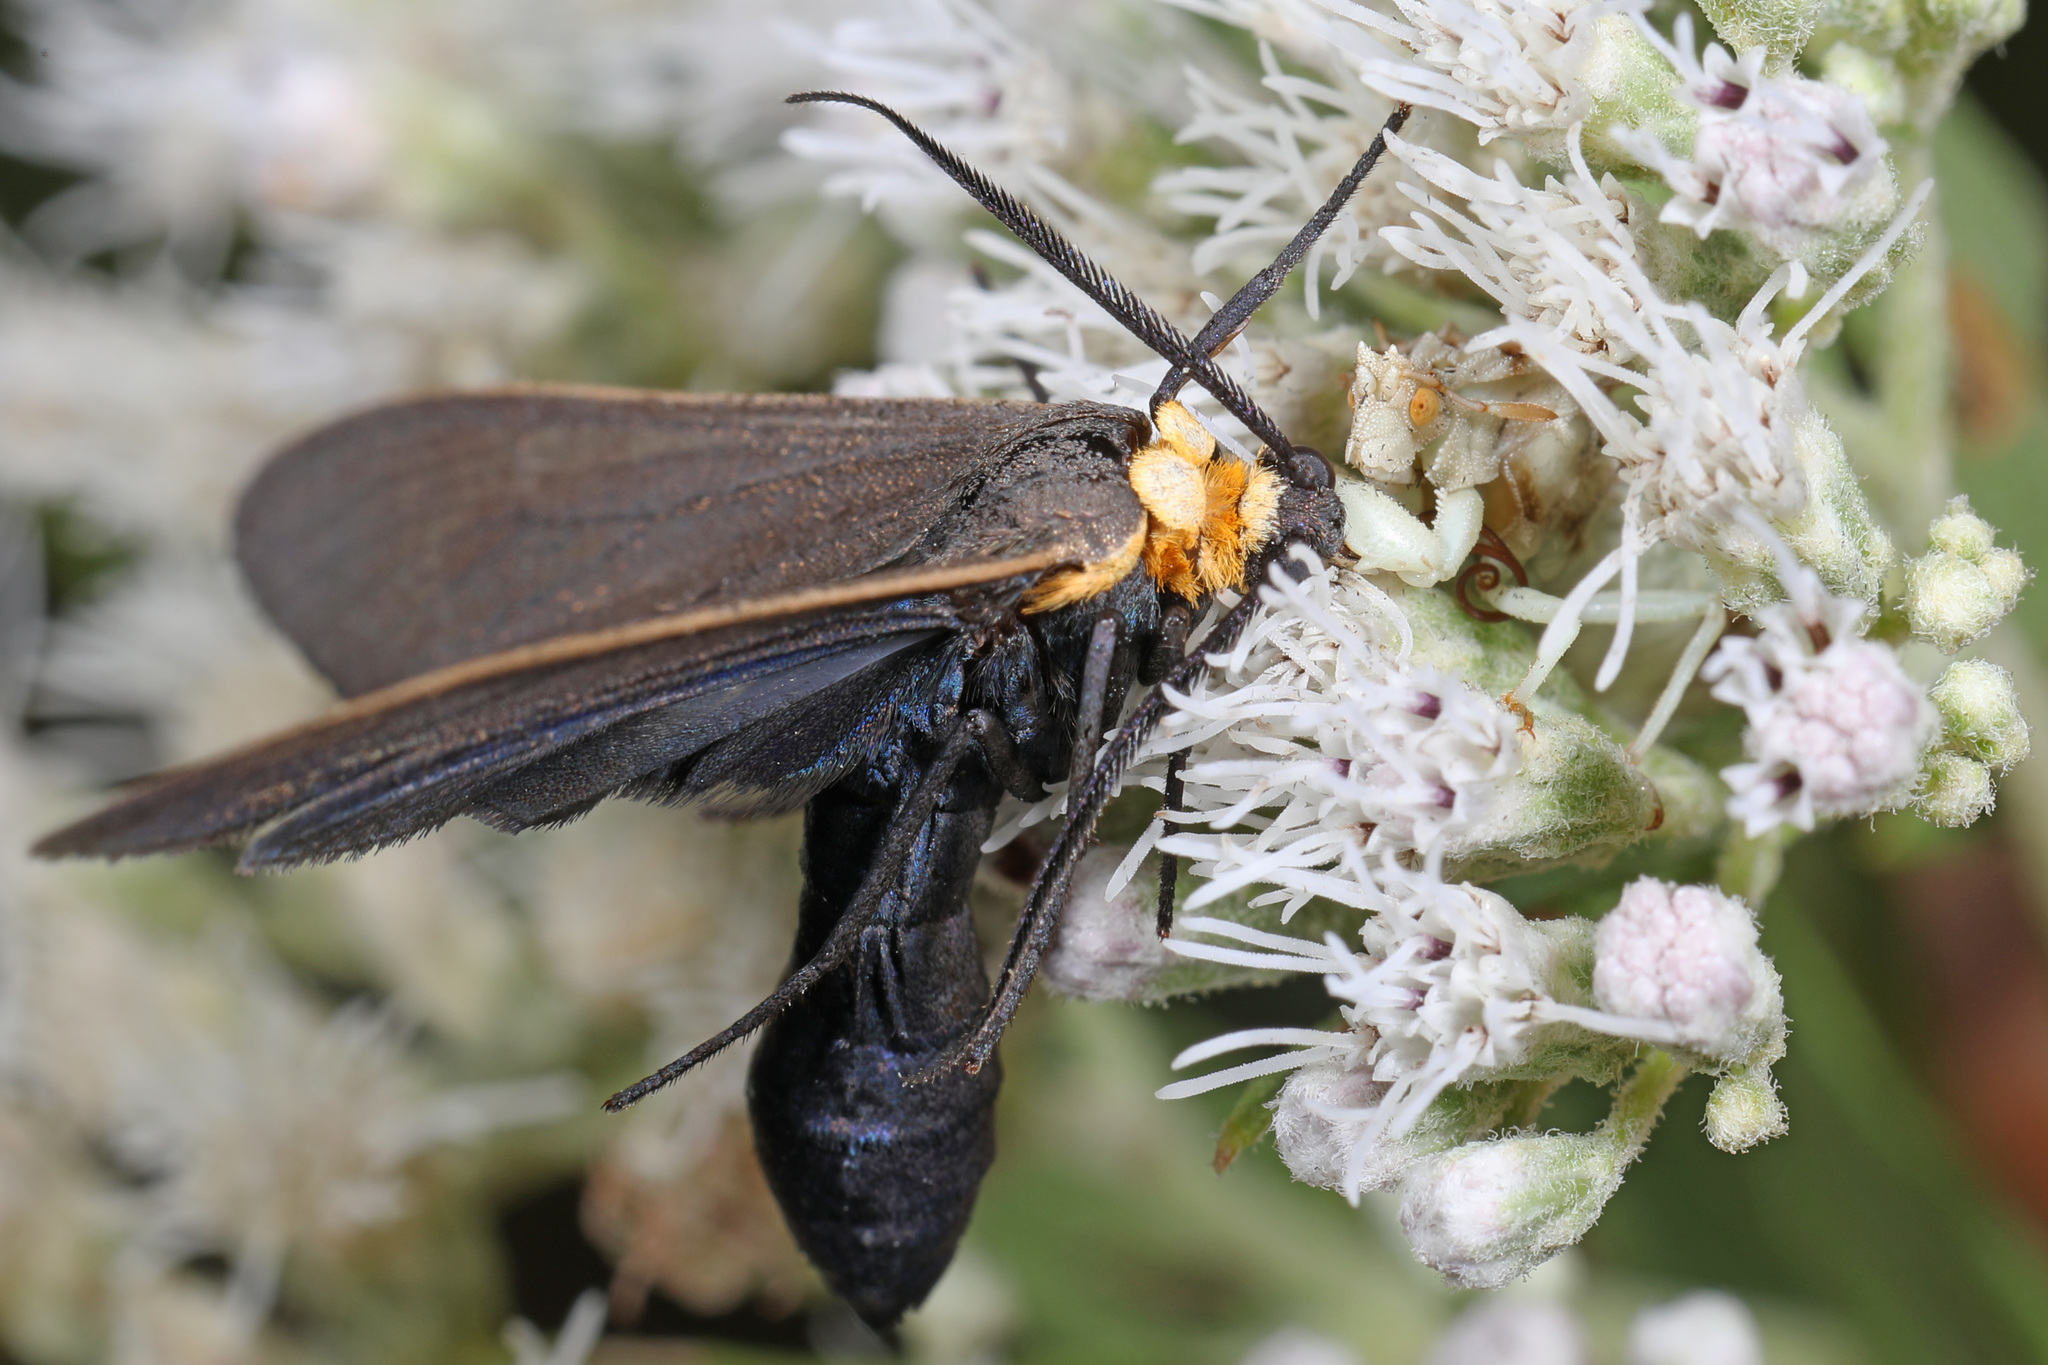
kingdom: Animalia
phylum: Arthropoda
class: Insecta
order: Lepidoptera
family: Erebidae
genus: Cisseps
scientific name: Cisseps fulvicollis
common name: Yellow-collared scape moth
